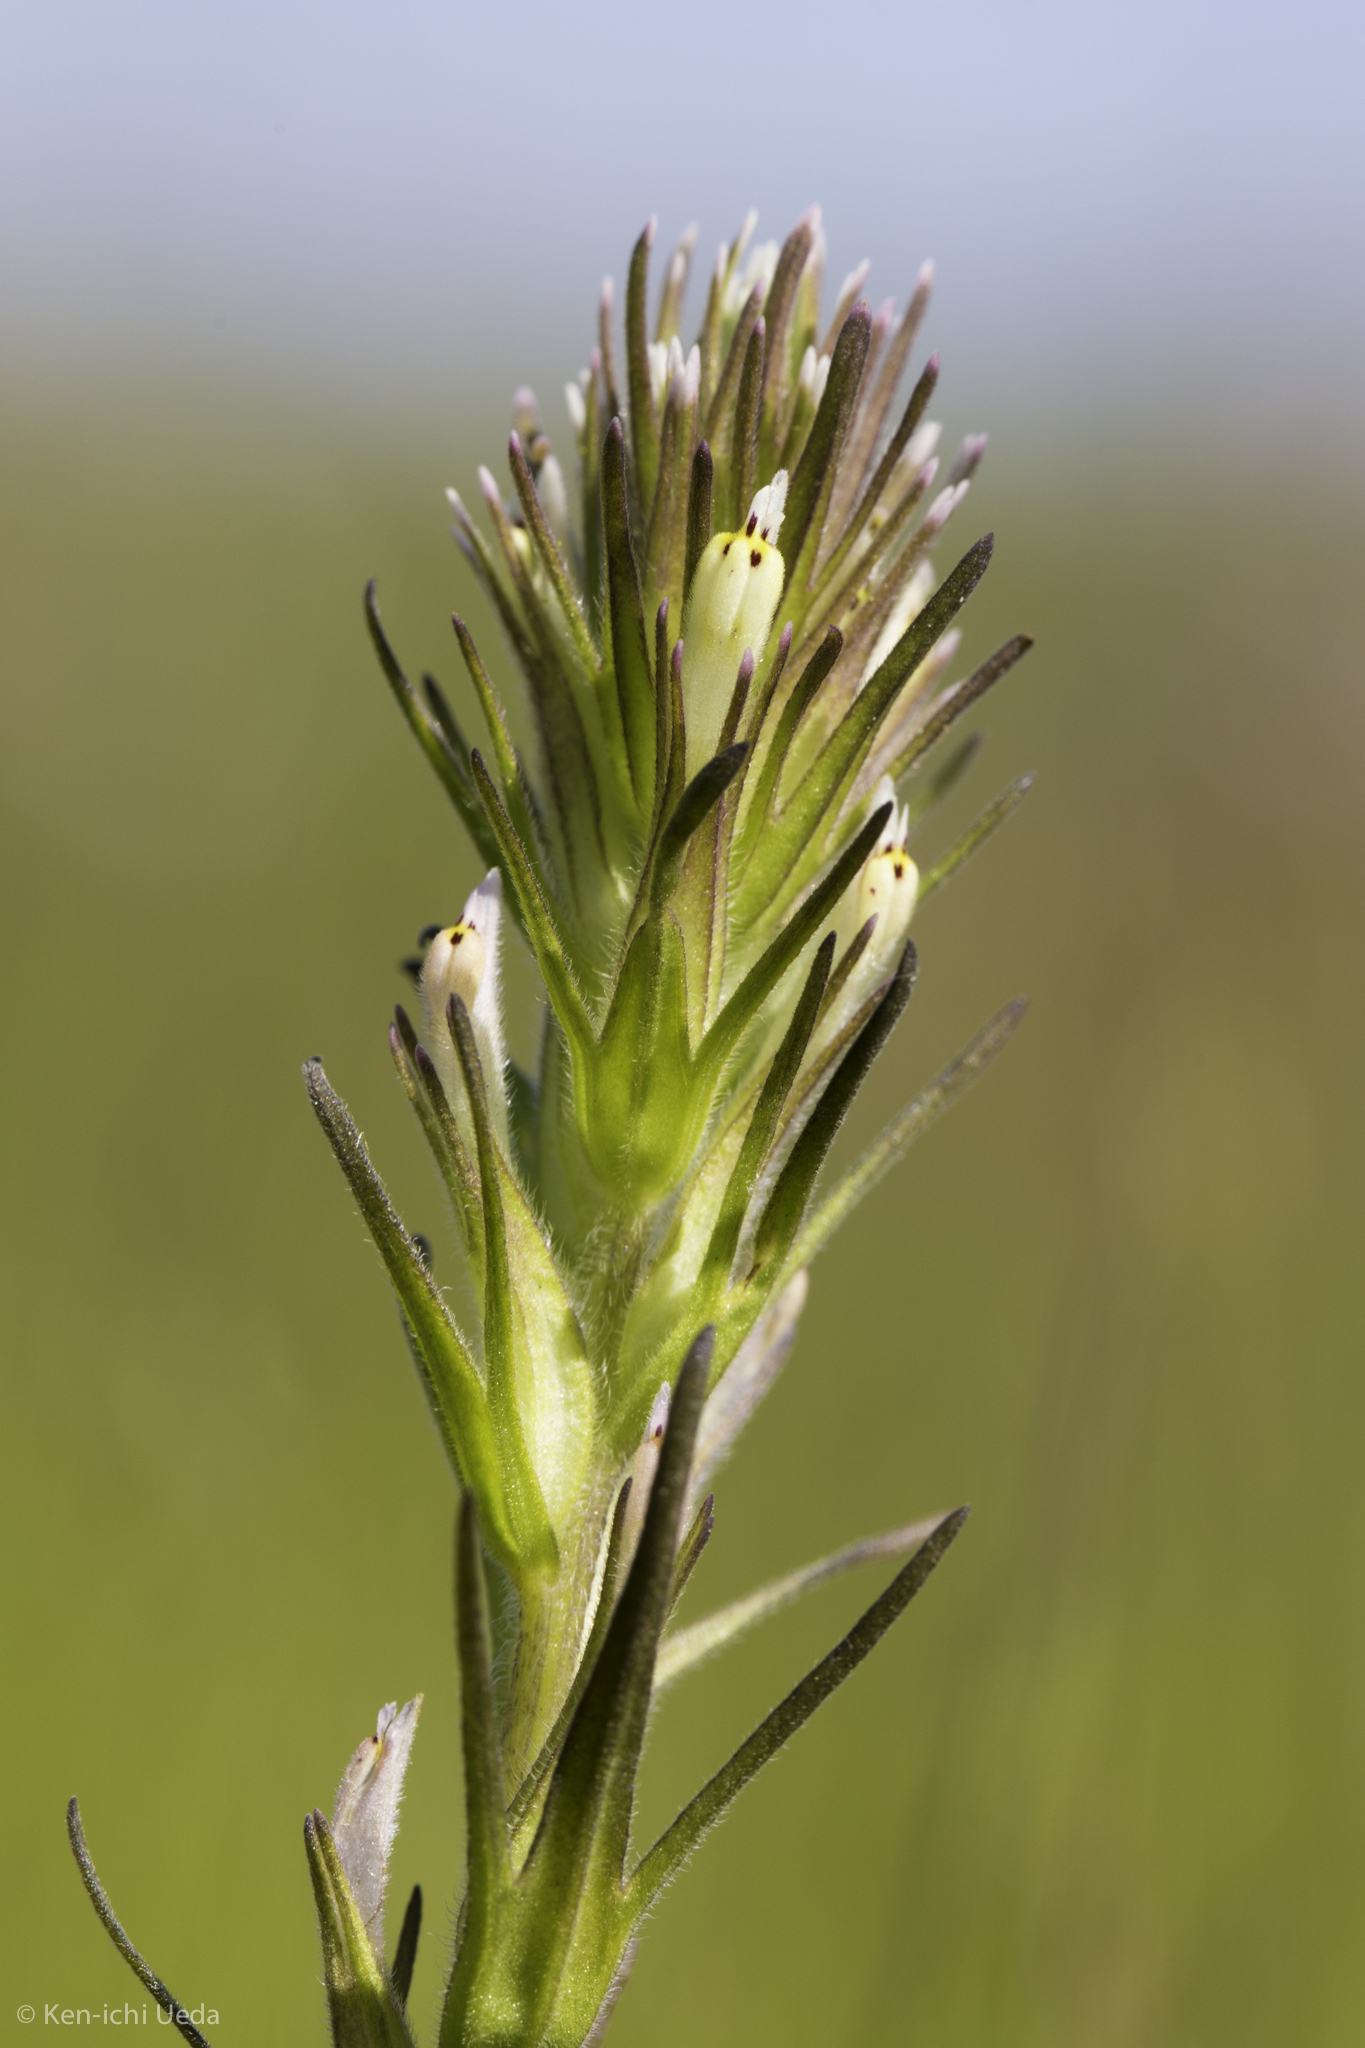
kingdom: Plantae
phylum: Tracheophyta
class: Magnoliopsida
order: Lamiales
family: Orobanchaceae
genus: Castilleja
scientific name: Castilleja attenuata
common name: Valley tassels
